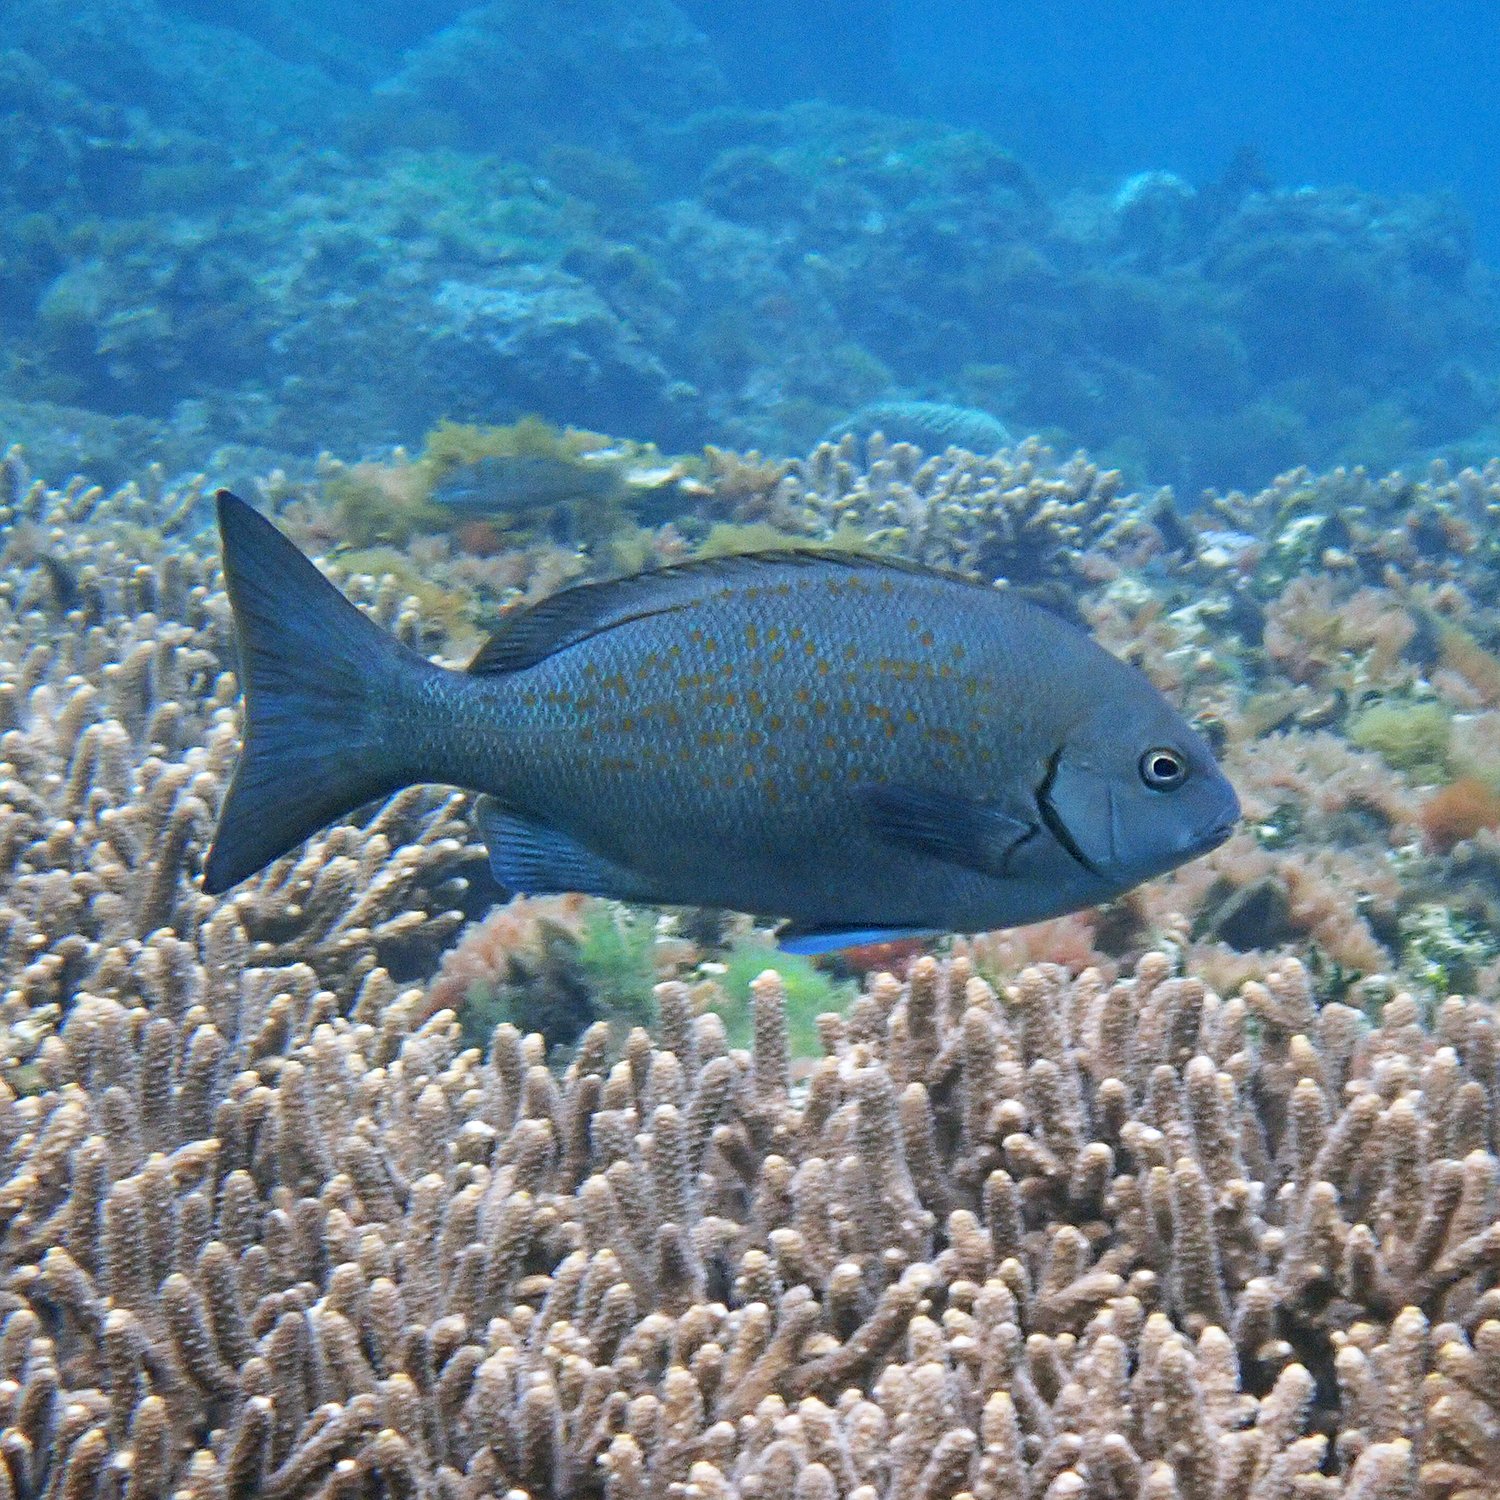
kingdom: Animalia
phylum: Chordata
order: Perciformes
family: Kyphosidae
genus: Girella
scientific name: Girella cyanea
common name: Bluefish
